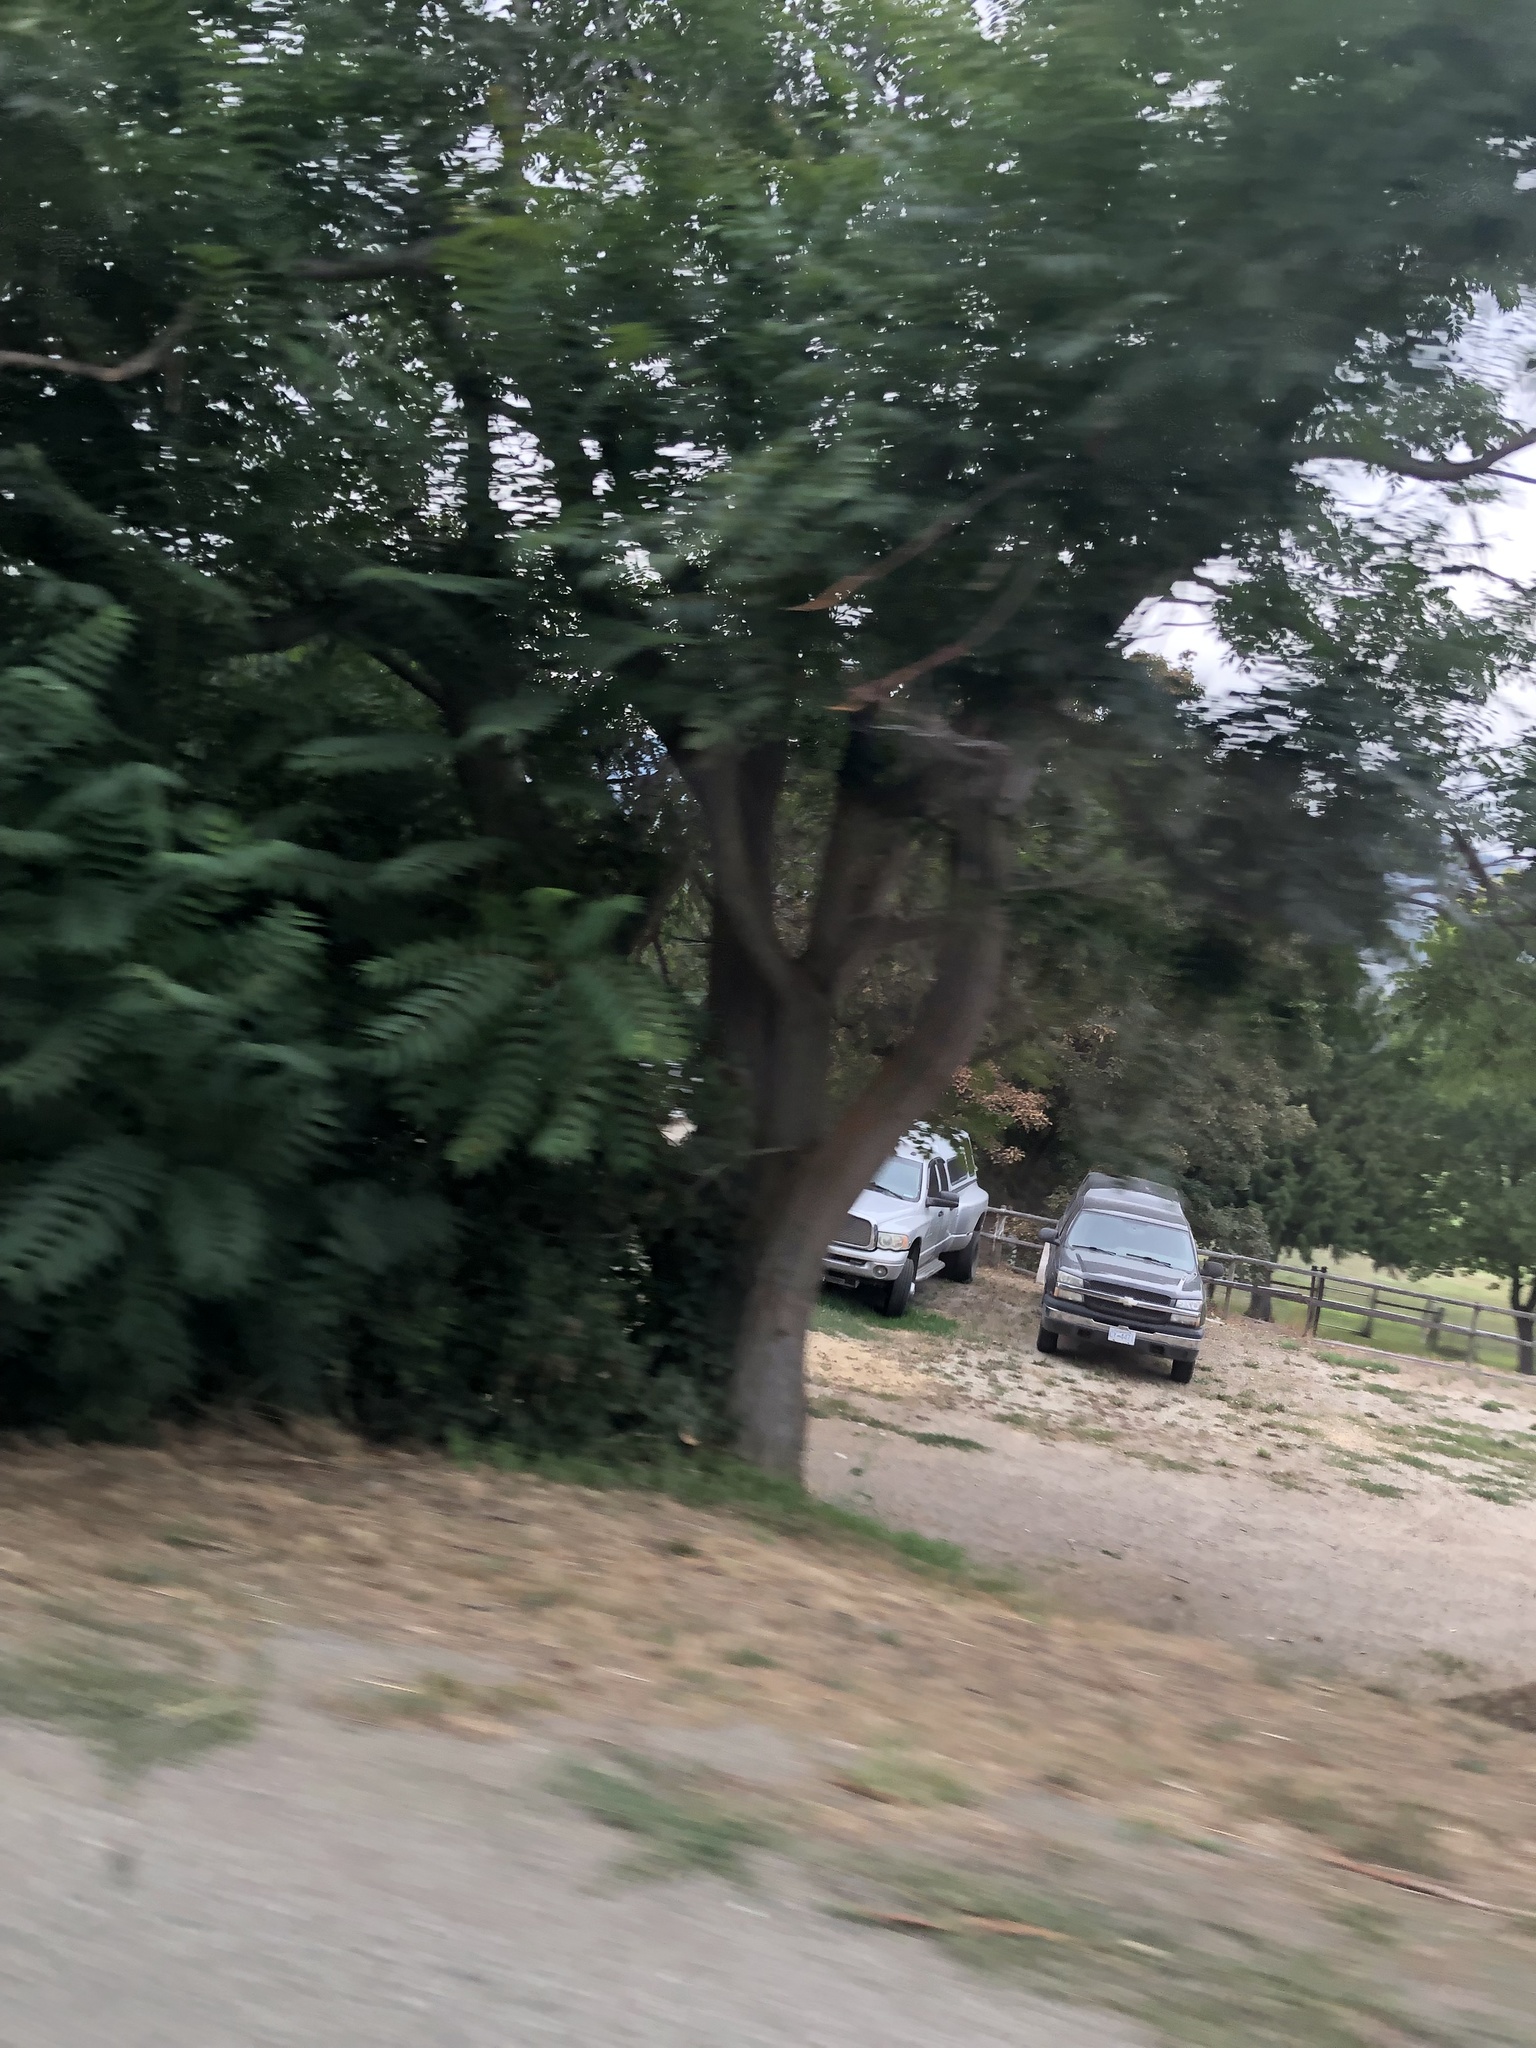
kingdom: Plantae
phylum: Tracheophyta
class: Magnoliopsida
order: Sapindales
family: Simaroubaceae
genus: Ailanthus
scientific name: Ailanthus altissima
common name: Tree-of-heaven
